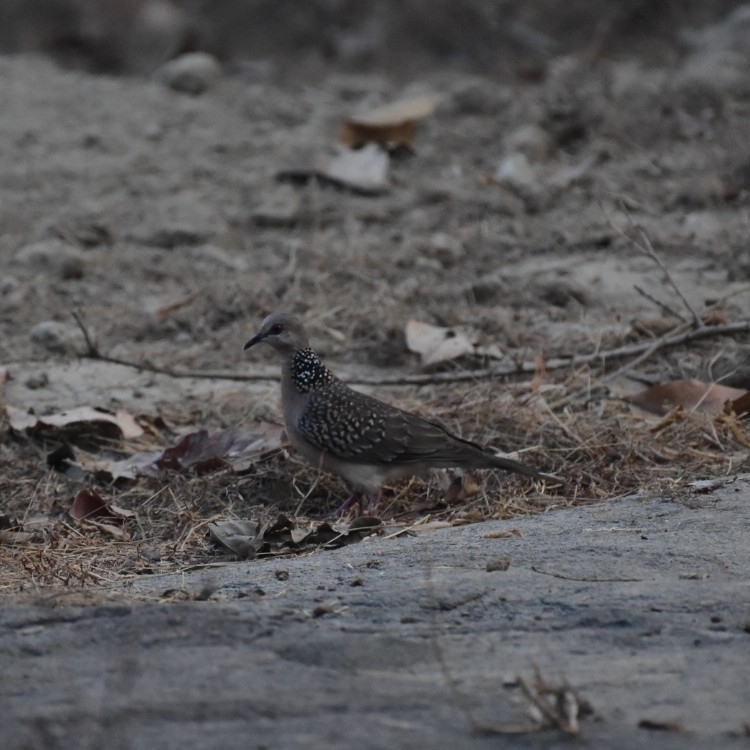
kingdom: Animalia
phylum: Chordata
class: Aves
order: Columbiformes
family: Columbidae
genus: Spilopelia
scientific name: Spilopelia chinensis
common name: Spotted dove
